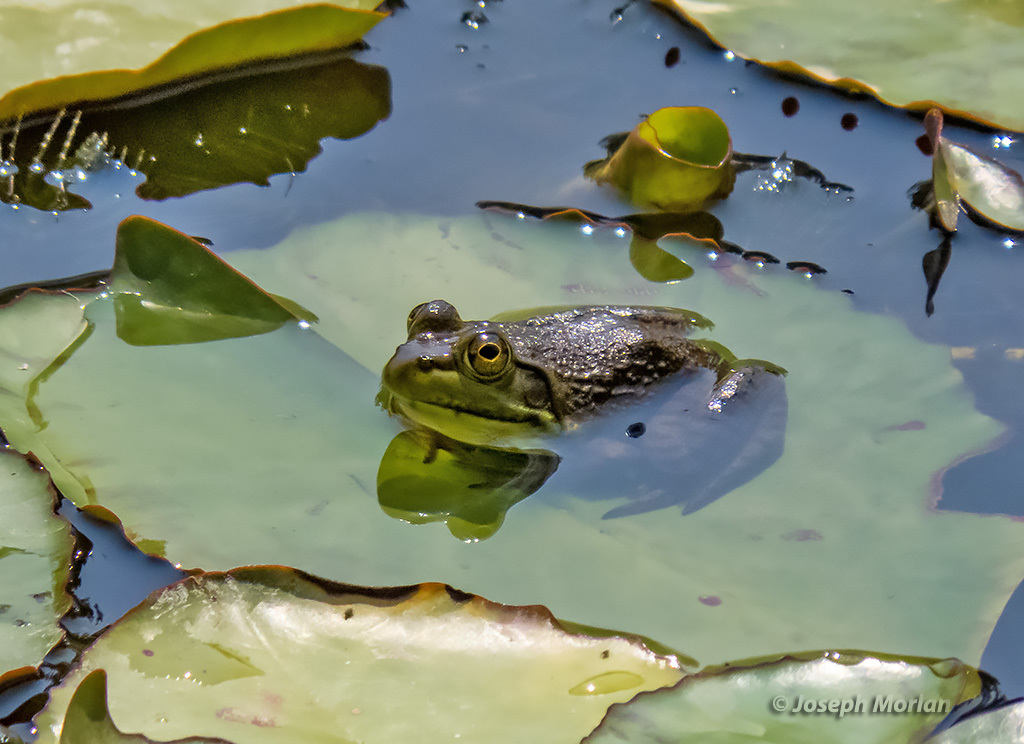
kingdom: Animalia
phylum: Chordata
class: Amphibia
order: Anura
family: Ranidae
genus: Lithobates
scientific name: Lithobates catesbeianus
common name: American bullfrog
